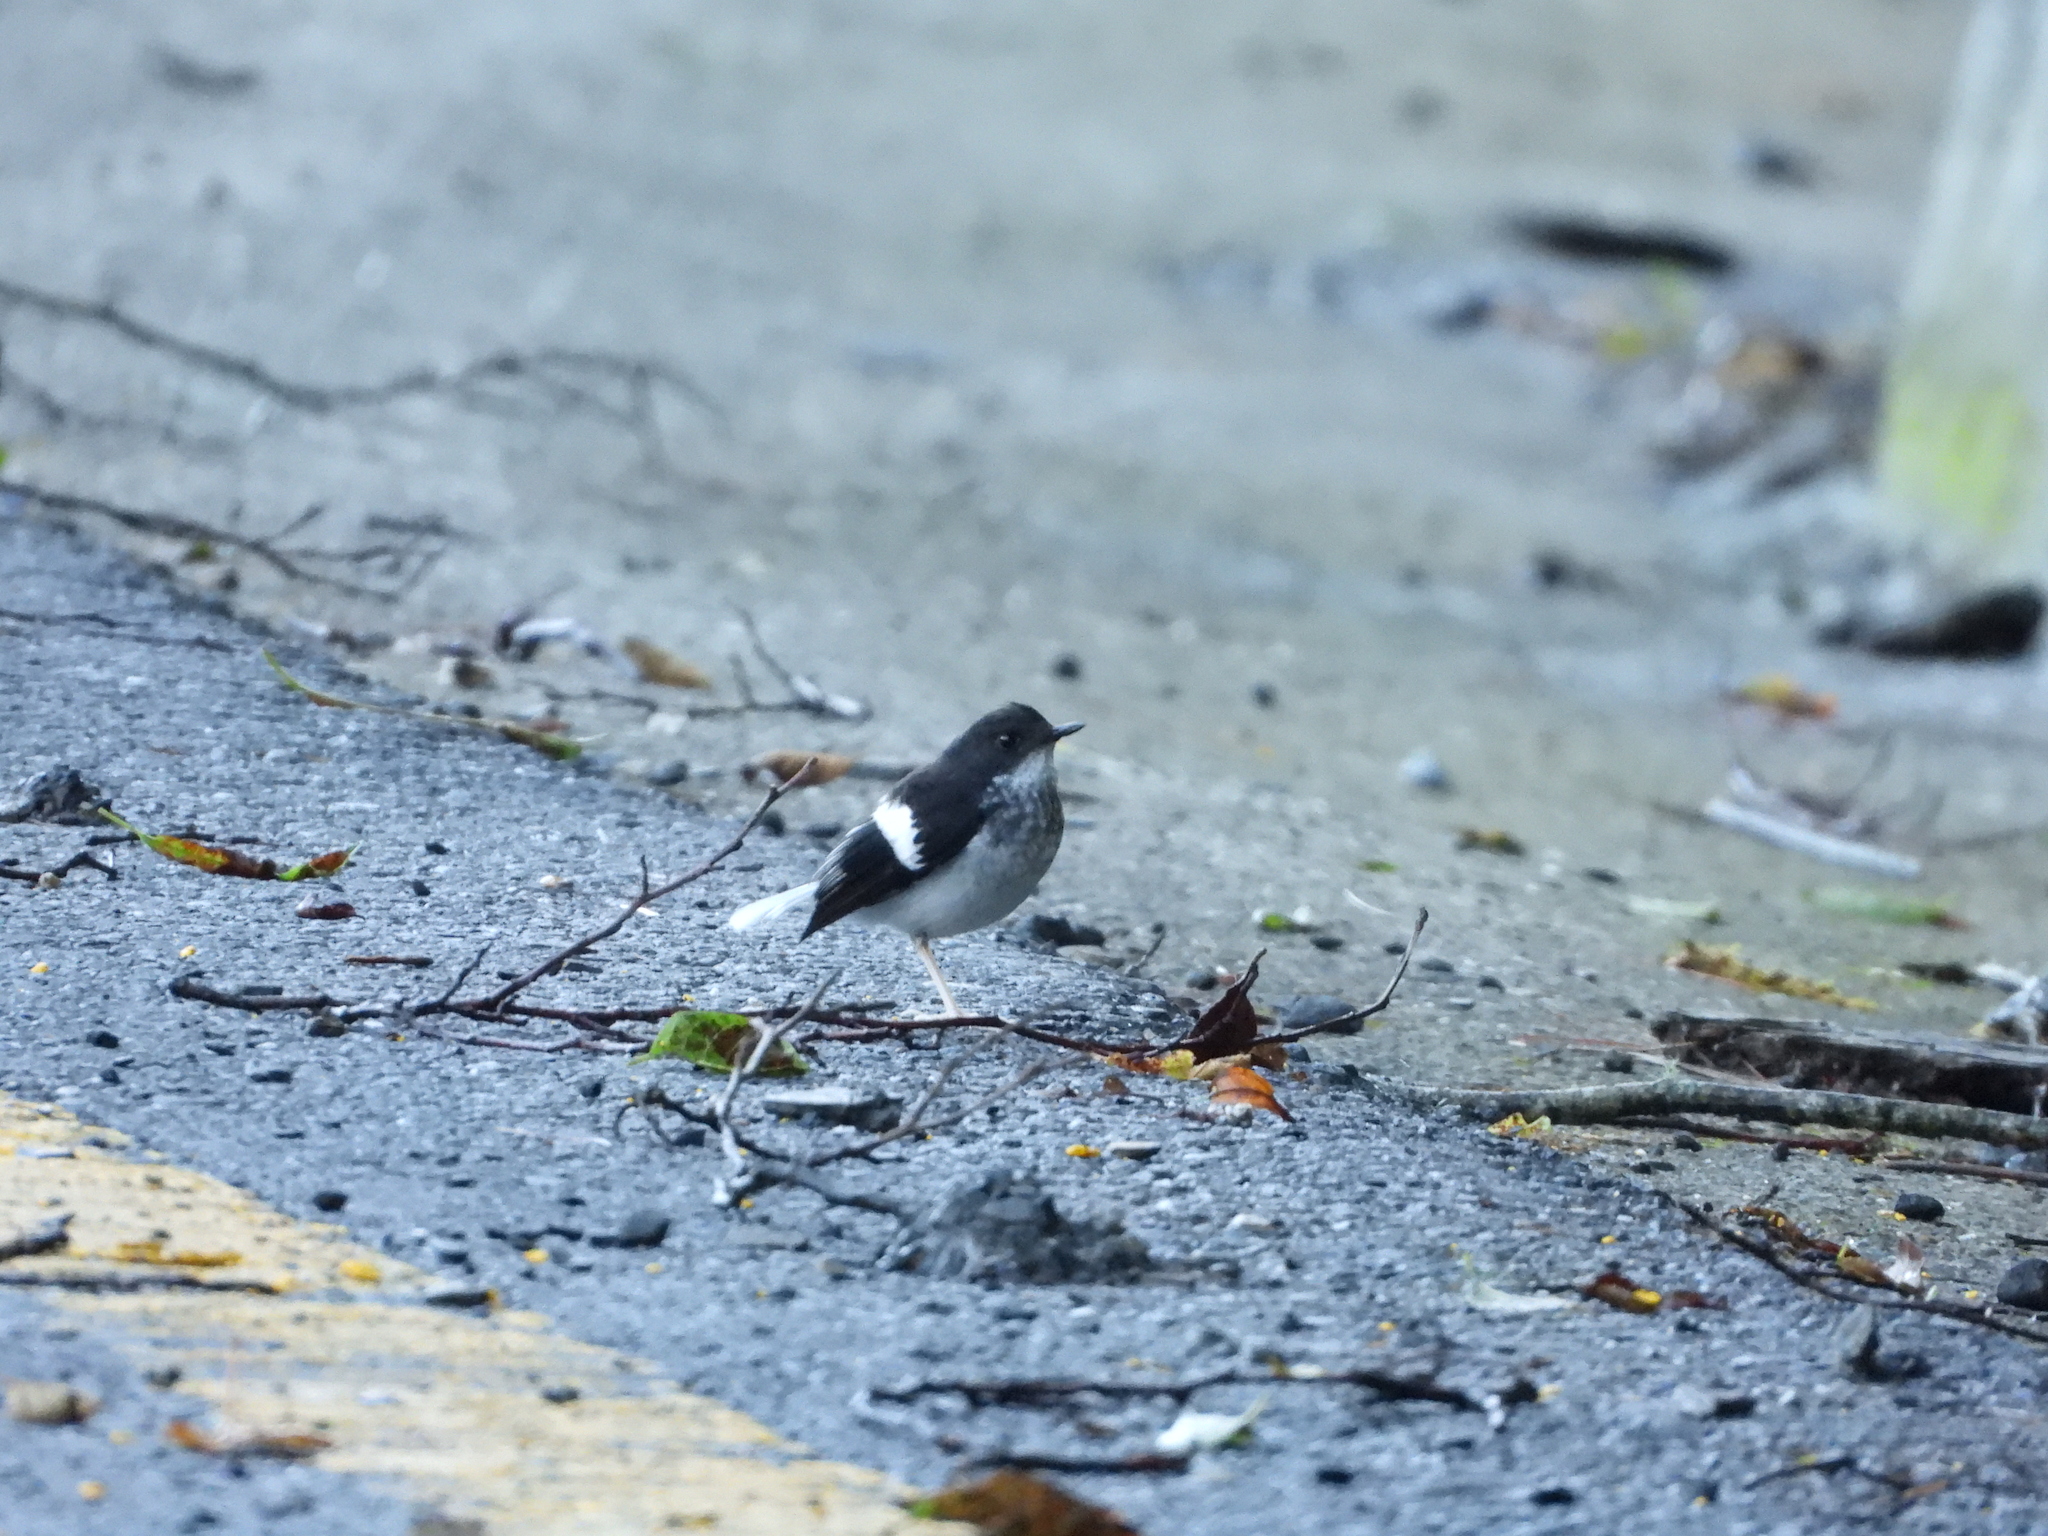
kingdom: Animalia
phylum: Chordata
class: Aves
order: Passeriformes
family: Muscicapidae
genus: Enicurus
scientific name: Enicurus scouleri
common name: Little forktail
